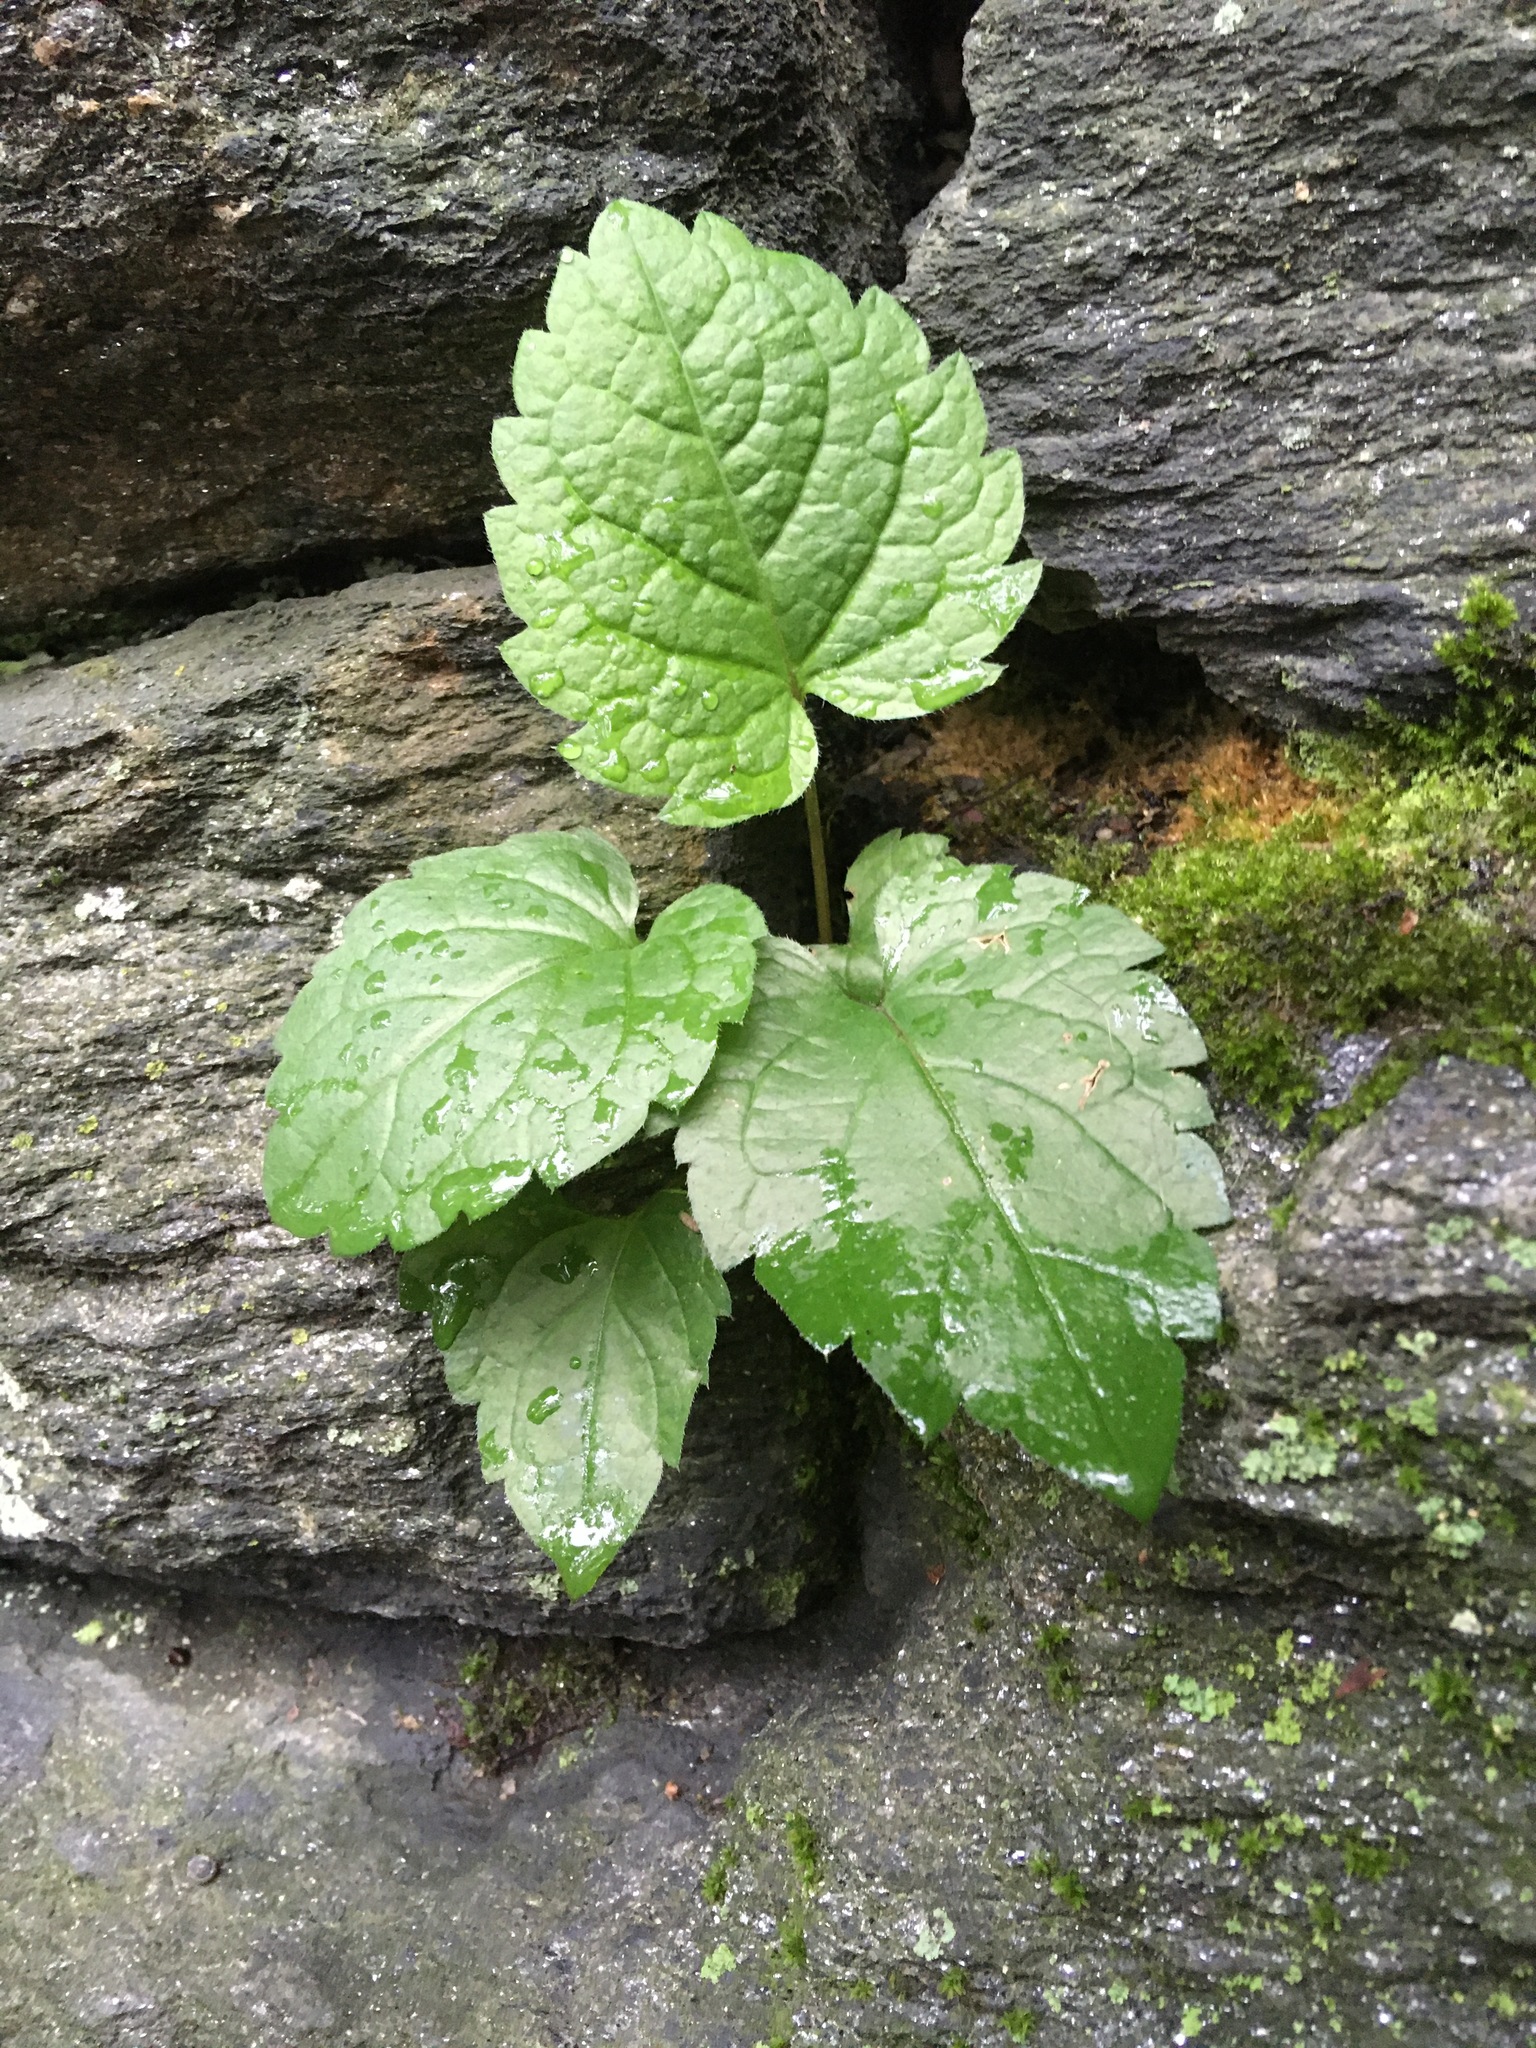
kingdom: Plantae
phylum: Tracheophyta
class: Magnoliopsida
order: Asterales
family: Asteraceae
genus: Erigeron
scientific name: Erigeron annuus
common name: Tall fleabane
